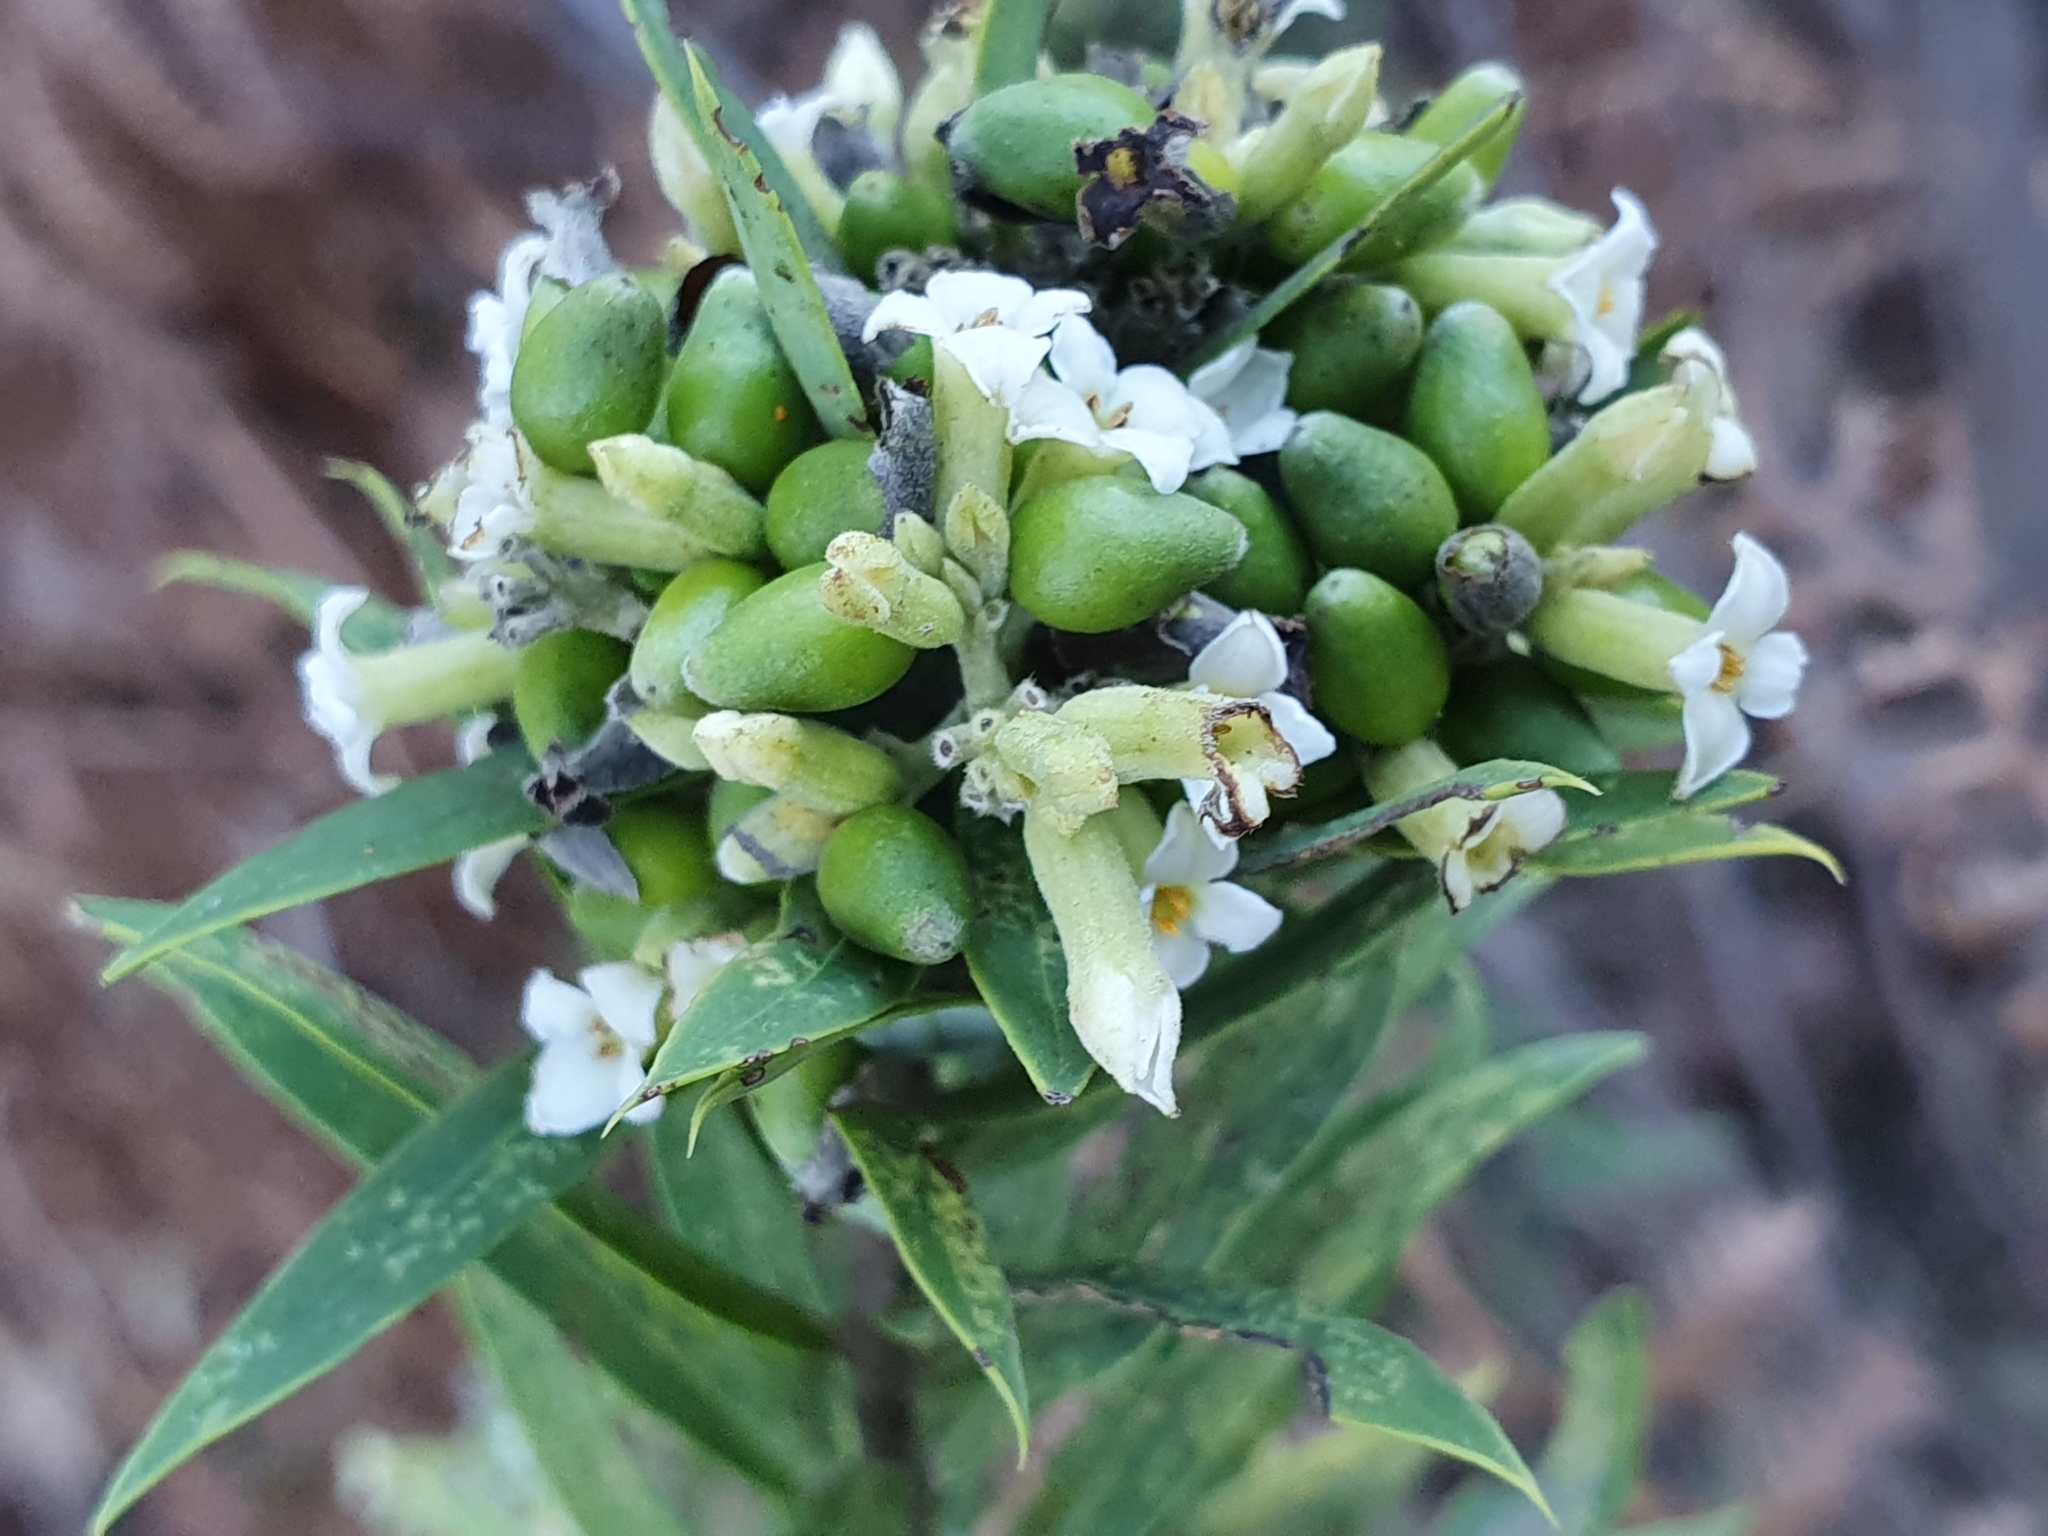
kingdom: Plantae
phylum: Tracheophyta
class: Magnoliopsida
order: Malvales
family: Thymelaeaceae
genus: Daphne
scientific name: Daphne gnidium
